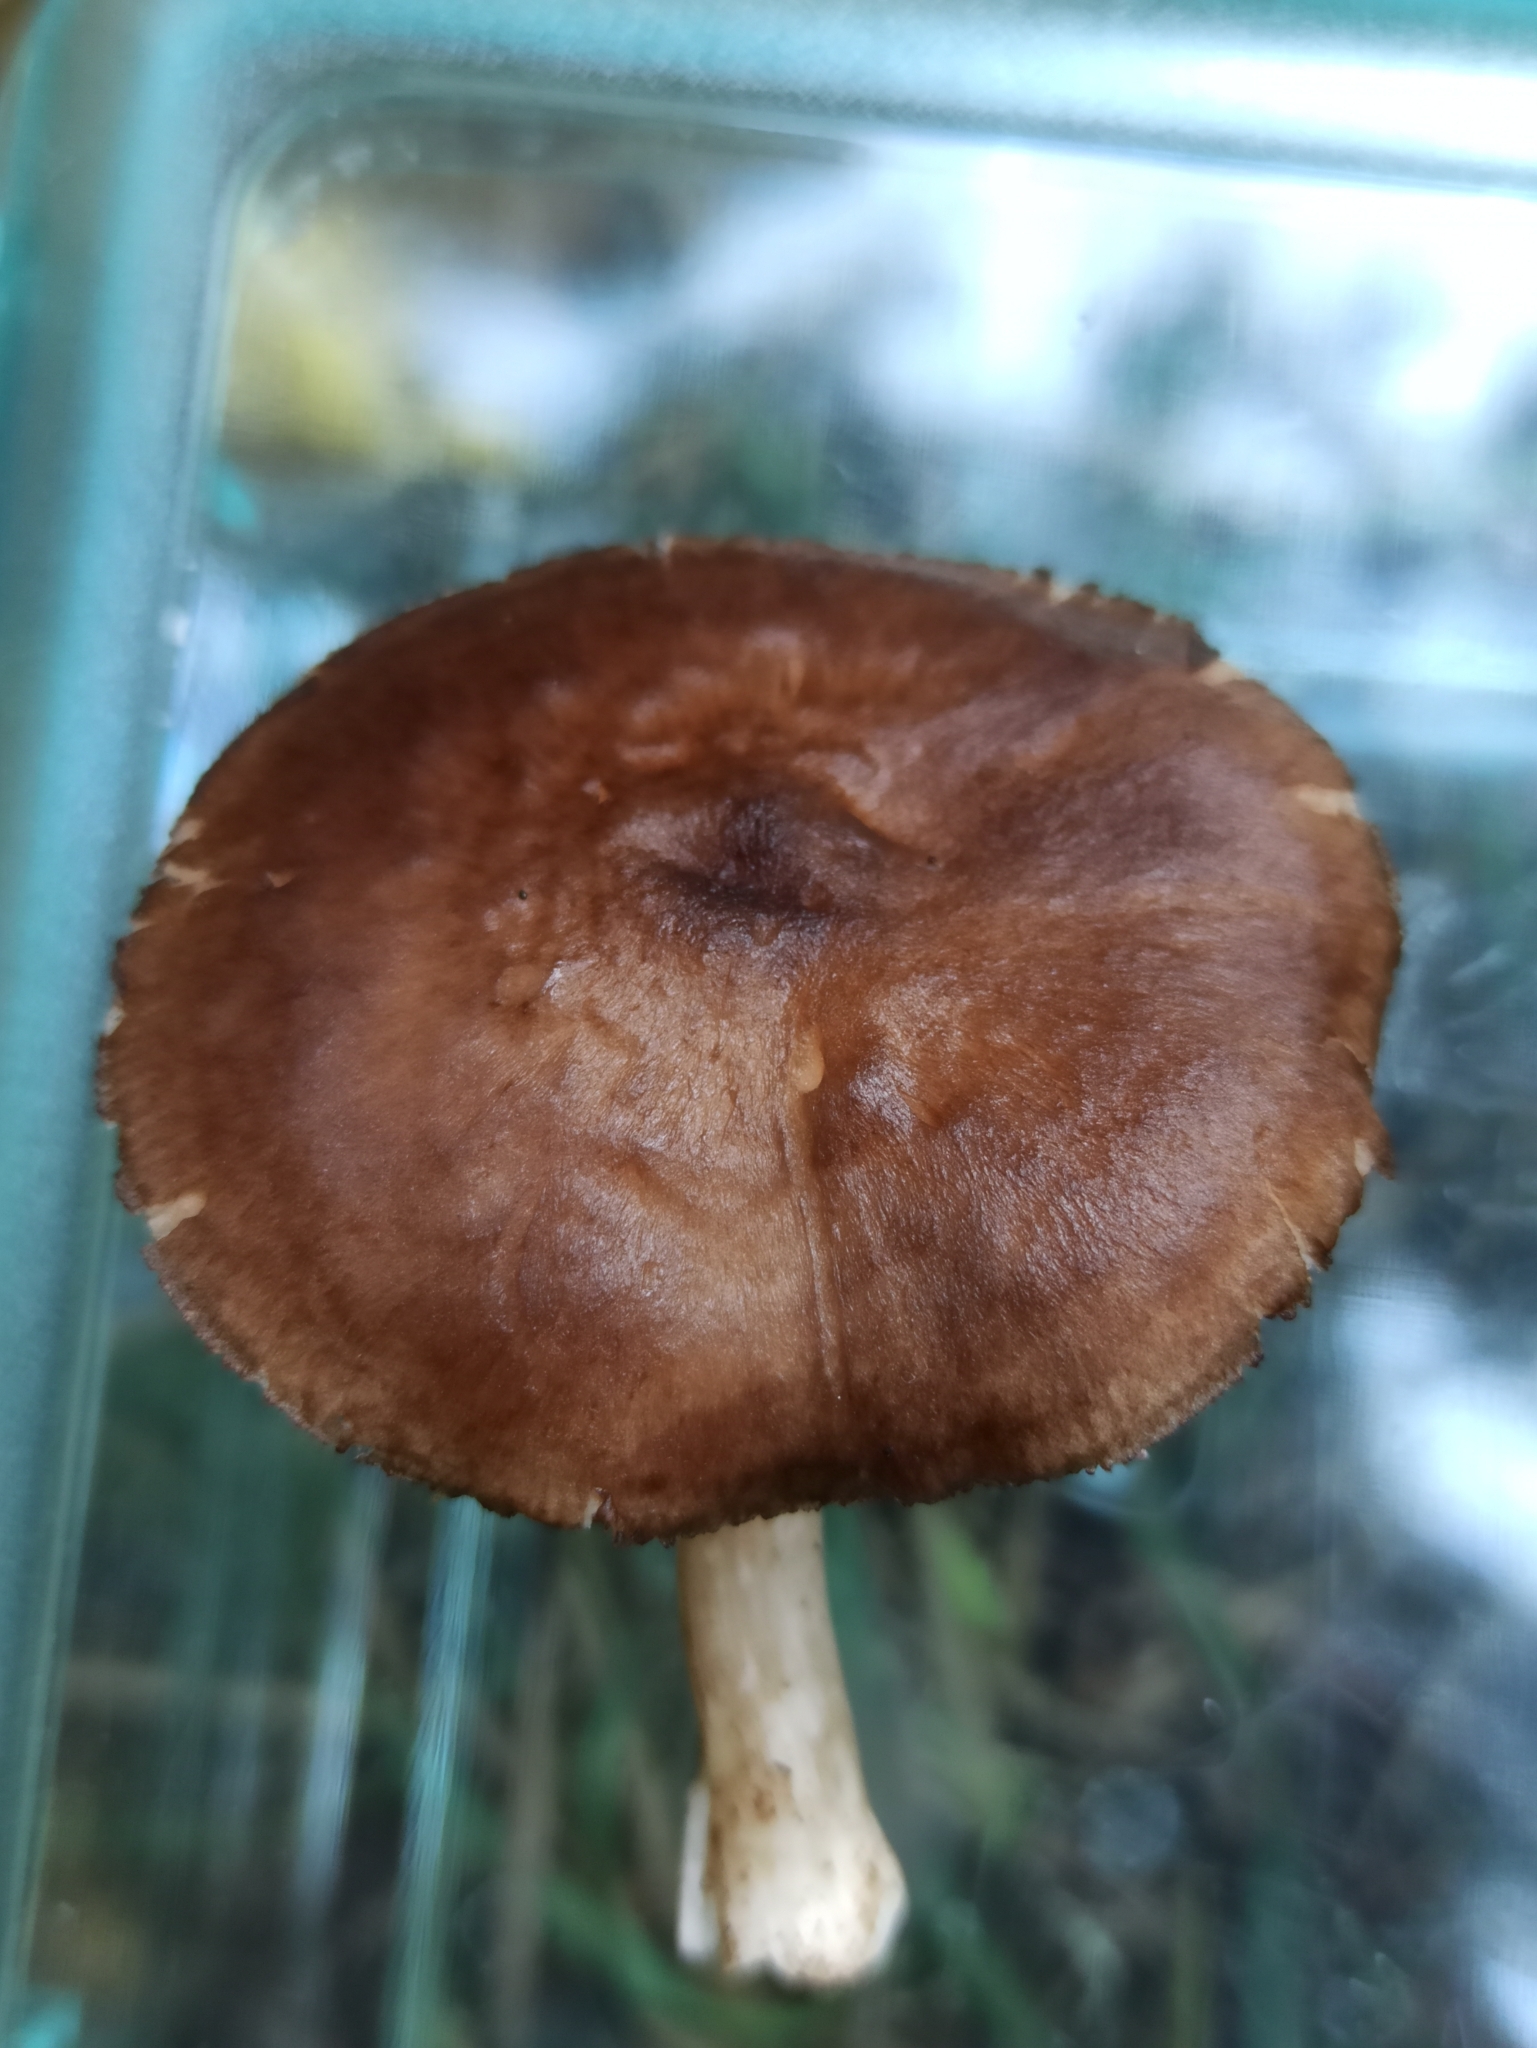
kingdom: Fungi
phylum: Basidiomycota
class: Agaricomycetes
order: Agaricales
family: Pluteaceae
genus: Pluteus
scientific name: Pluteus atromarginatus
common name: Blackedged shield
